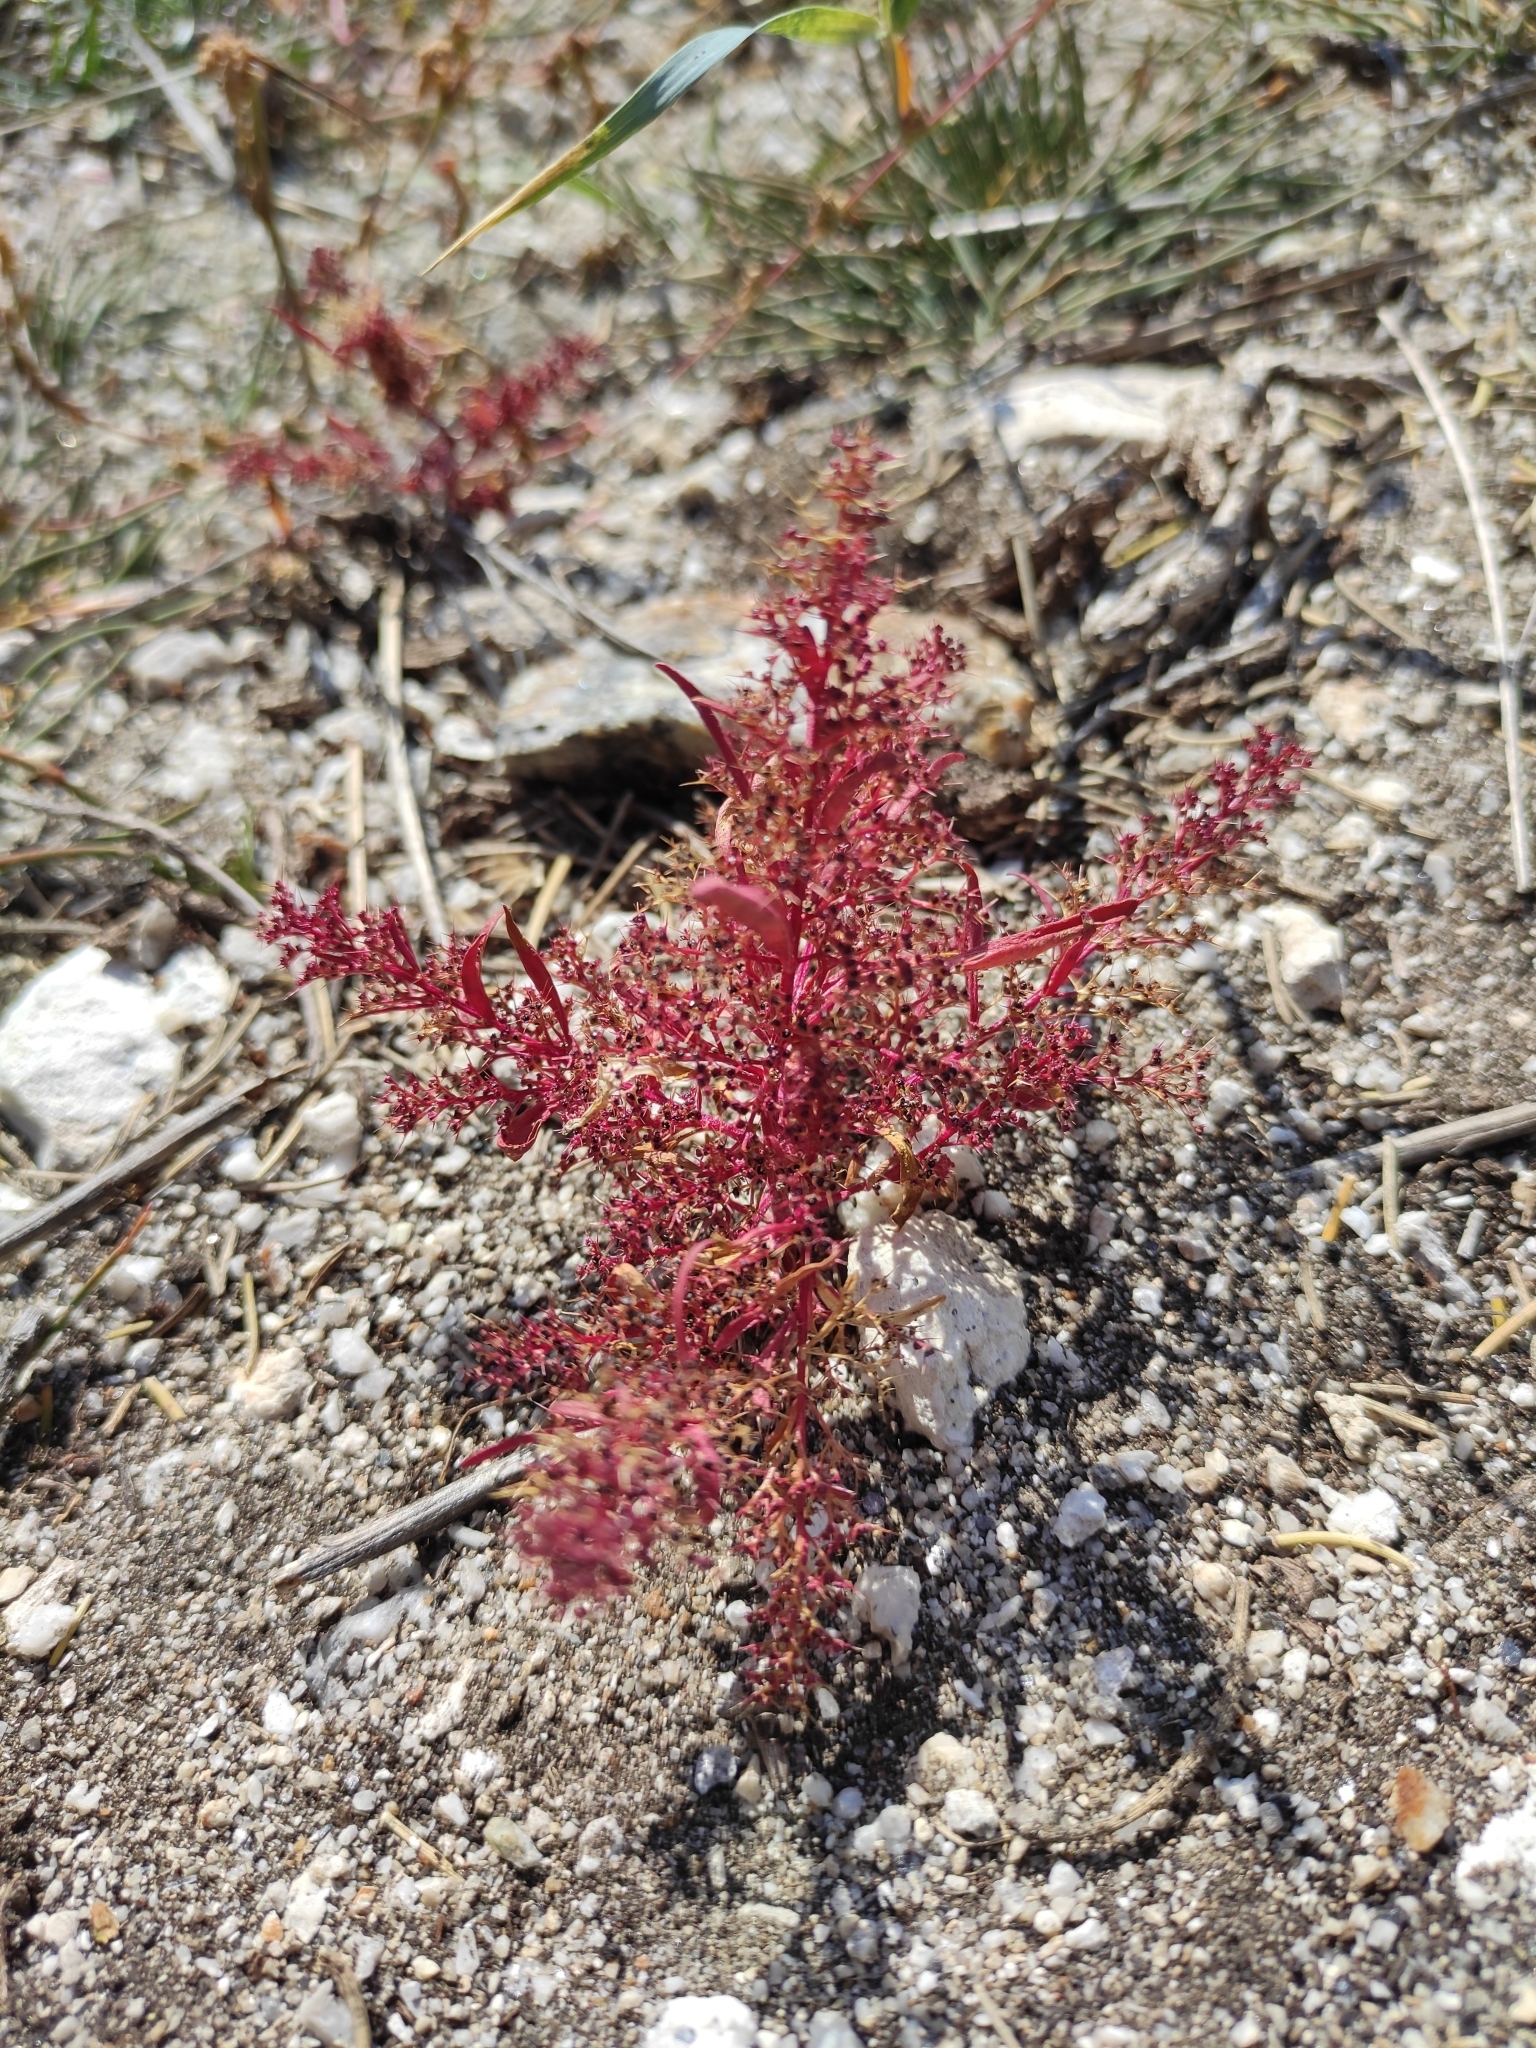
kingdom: Plantae
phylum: Tracheophyta
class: Magnoliopsida
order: Caryophyllales
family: Amaranthaceae
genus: Teloxys
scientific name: Teloxys aristata
